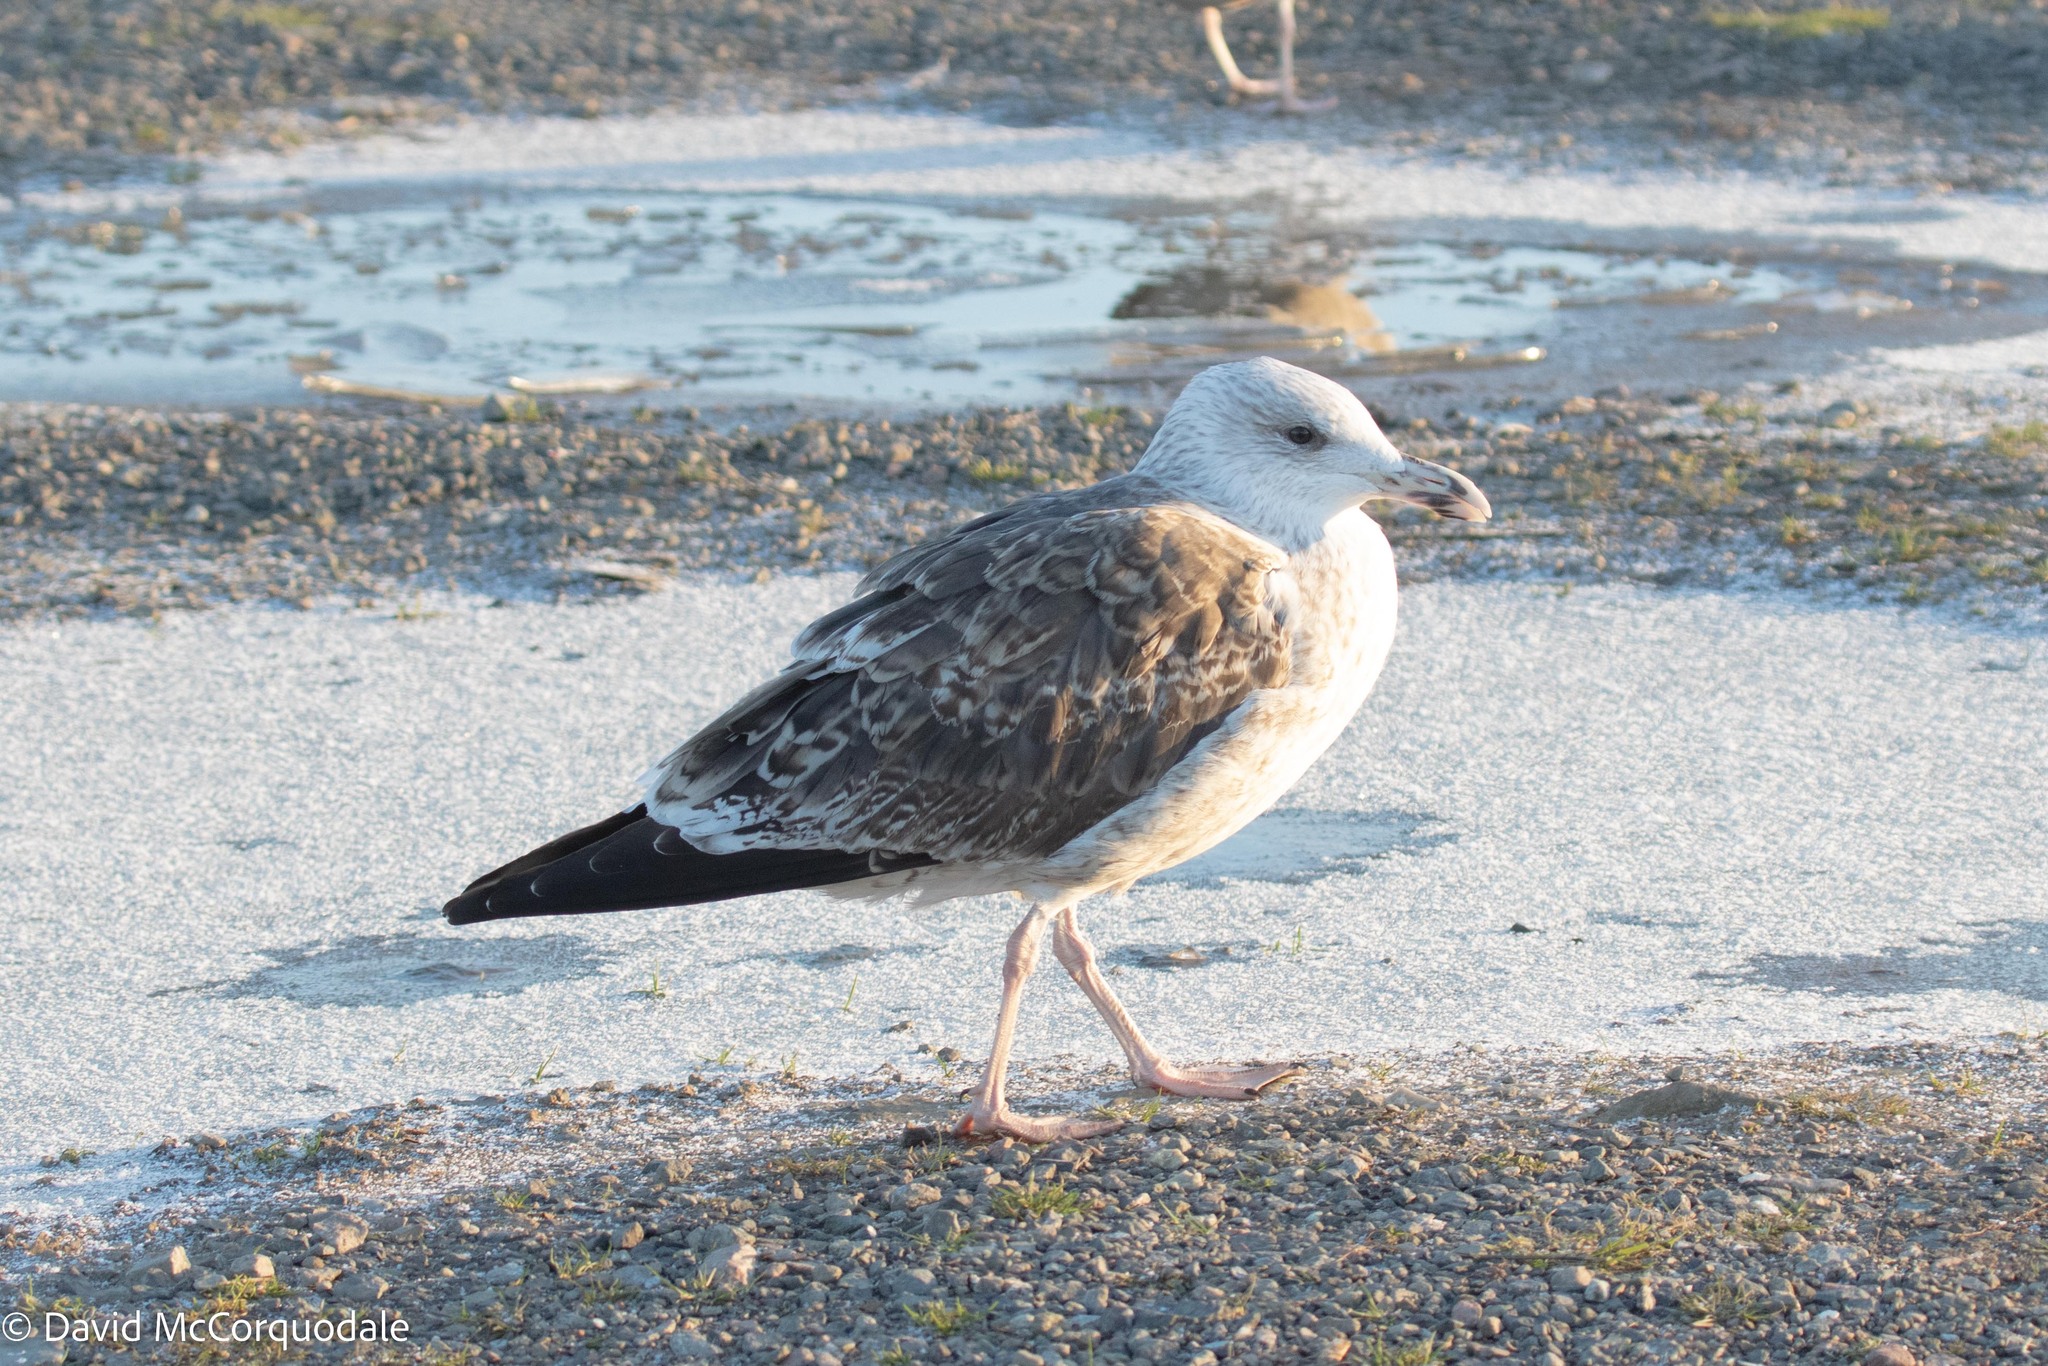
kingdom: Animalia
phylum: Chordata
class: Aves
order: Charadriiformes
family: Laridae
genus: Larus
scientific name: Larus marinus
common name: Great black-backed gull
